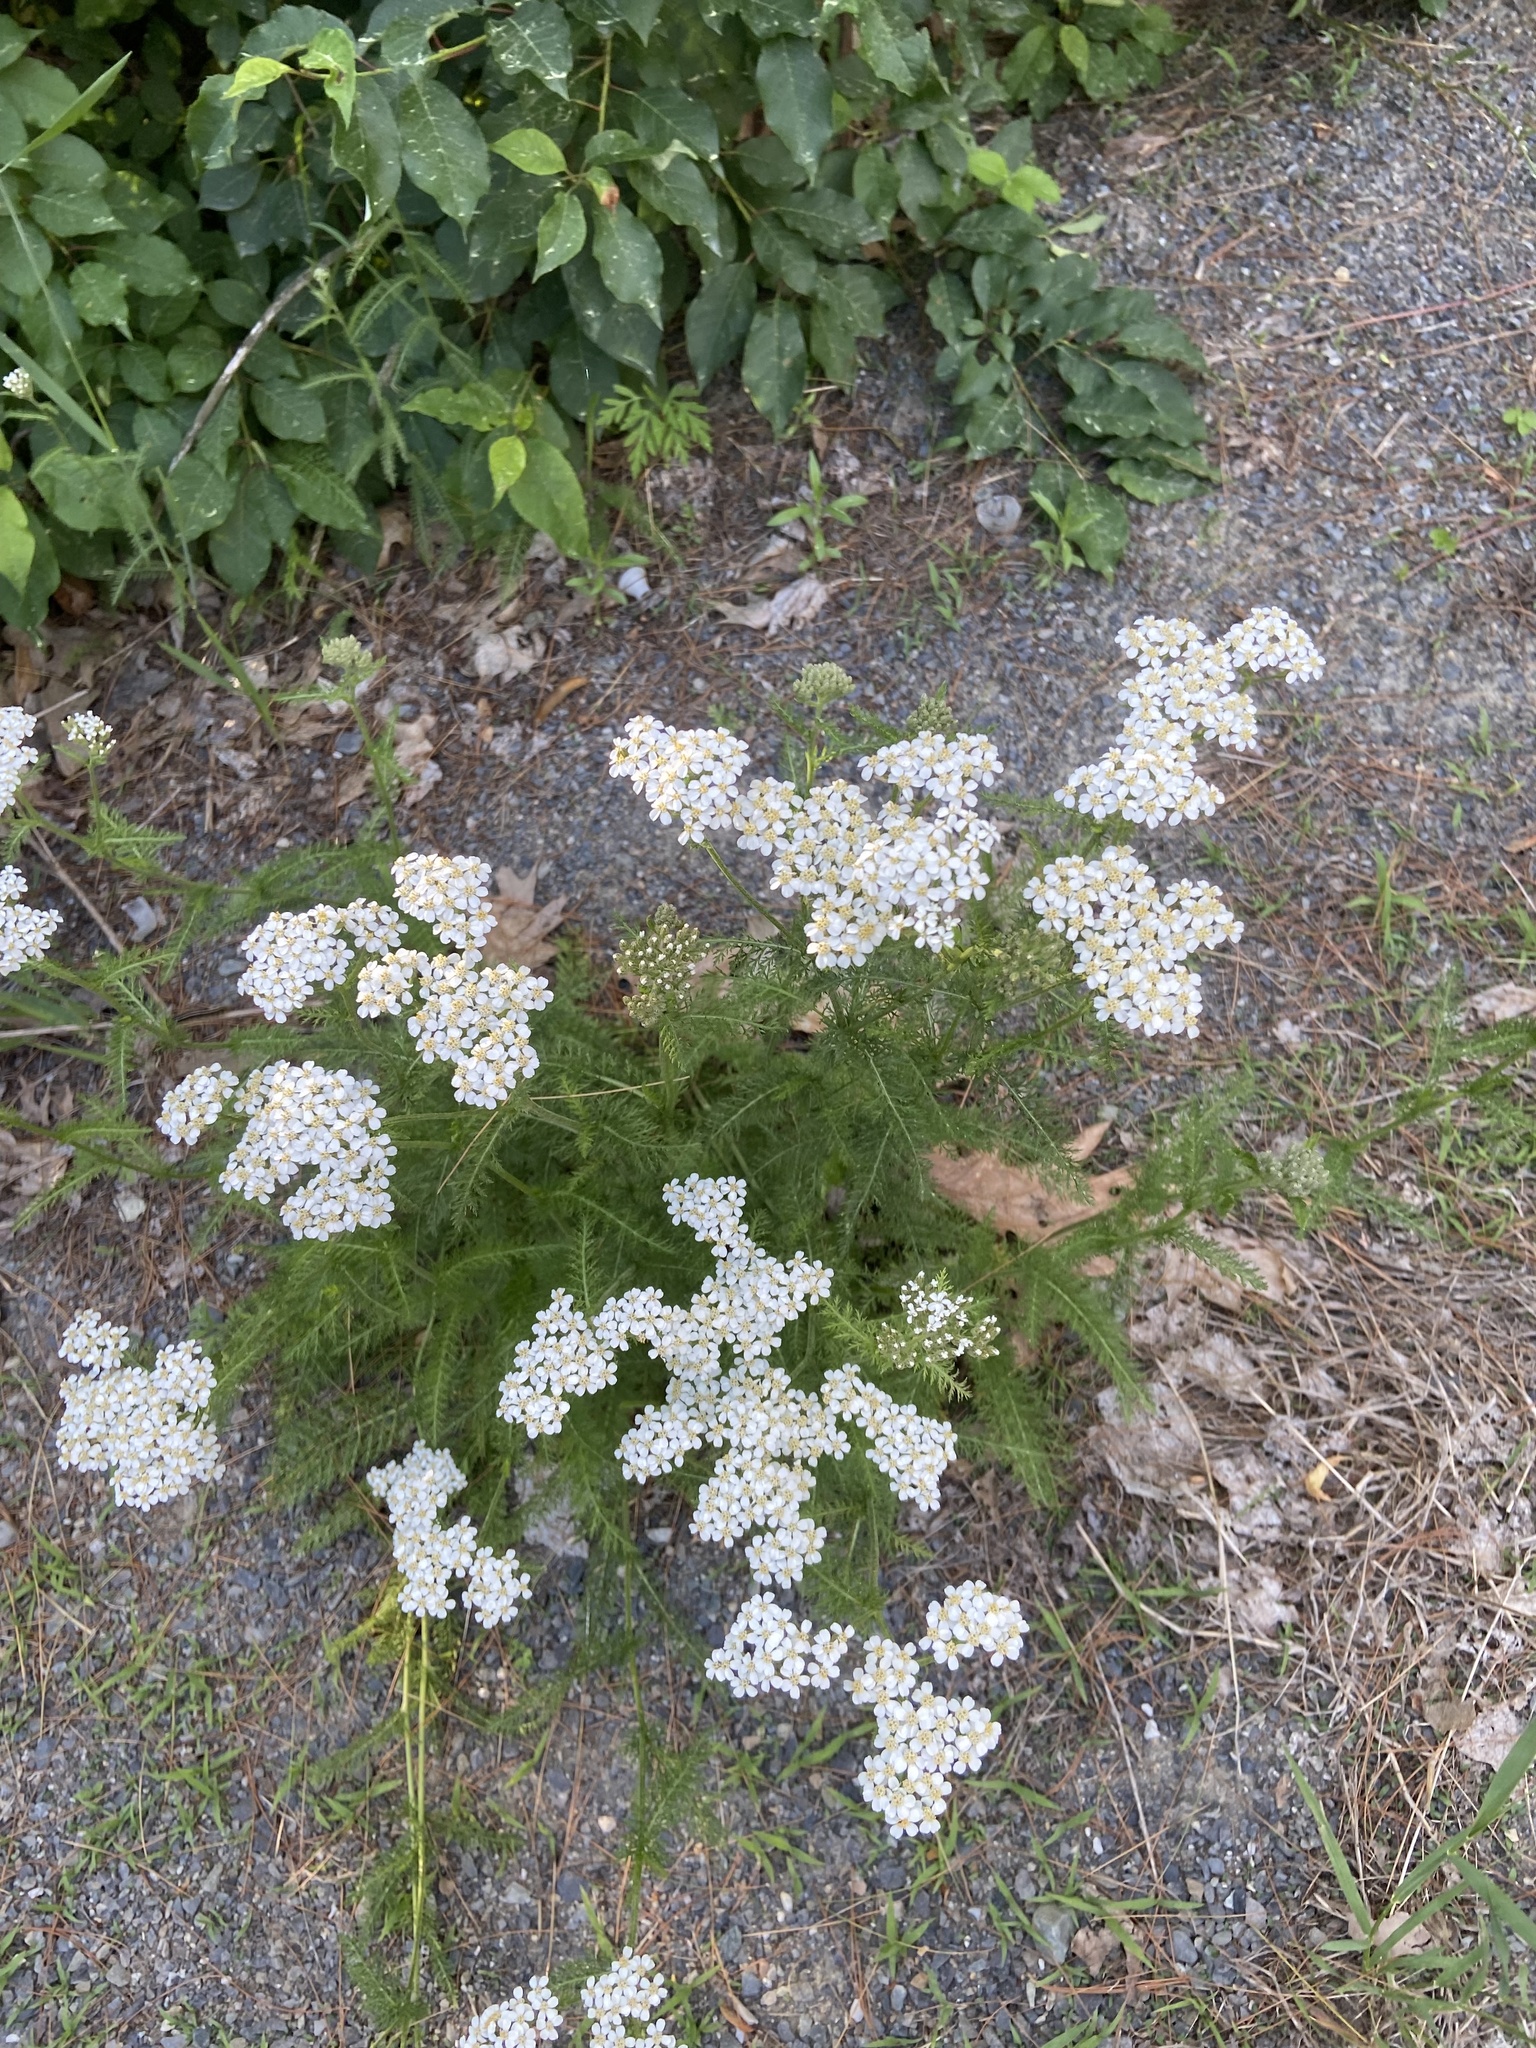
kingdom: Plantae
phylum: Tracheophyta
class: Magnoliopsida
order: Asterales
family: Asteraceae
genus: Achillea
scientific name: Achillea millefolium
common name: Yarrow
